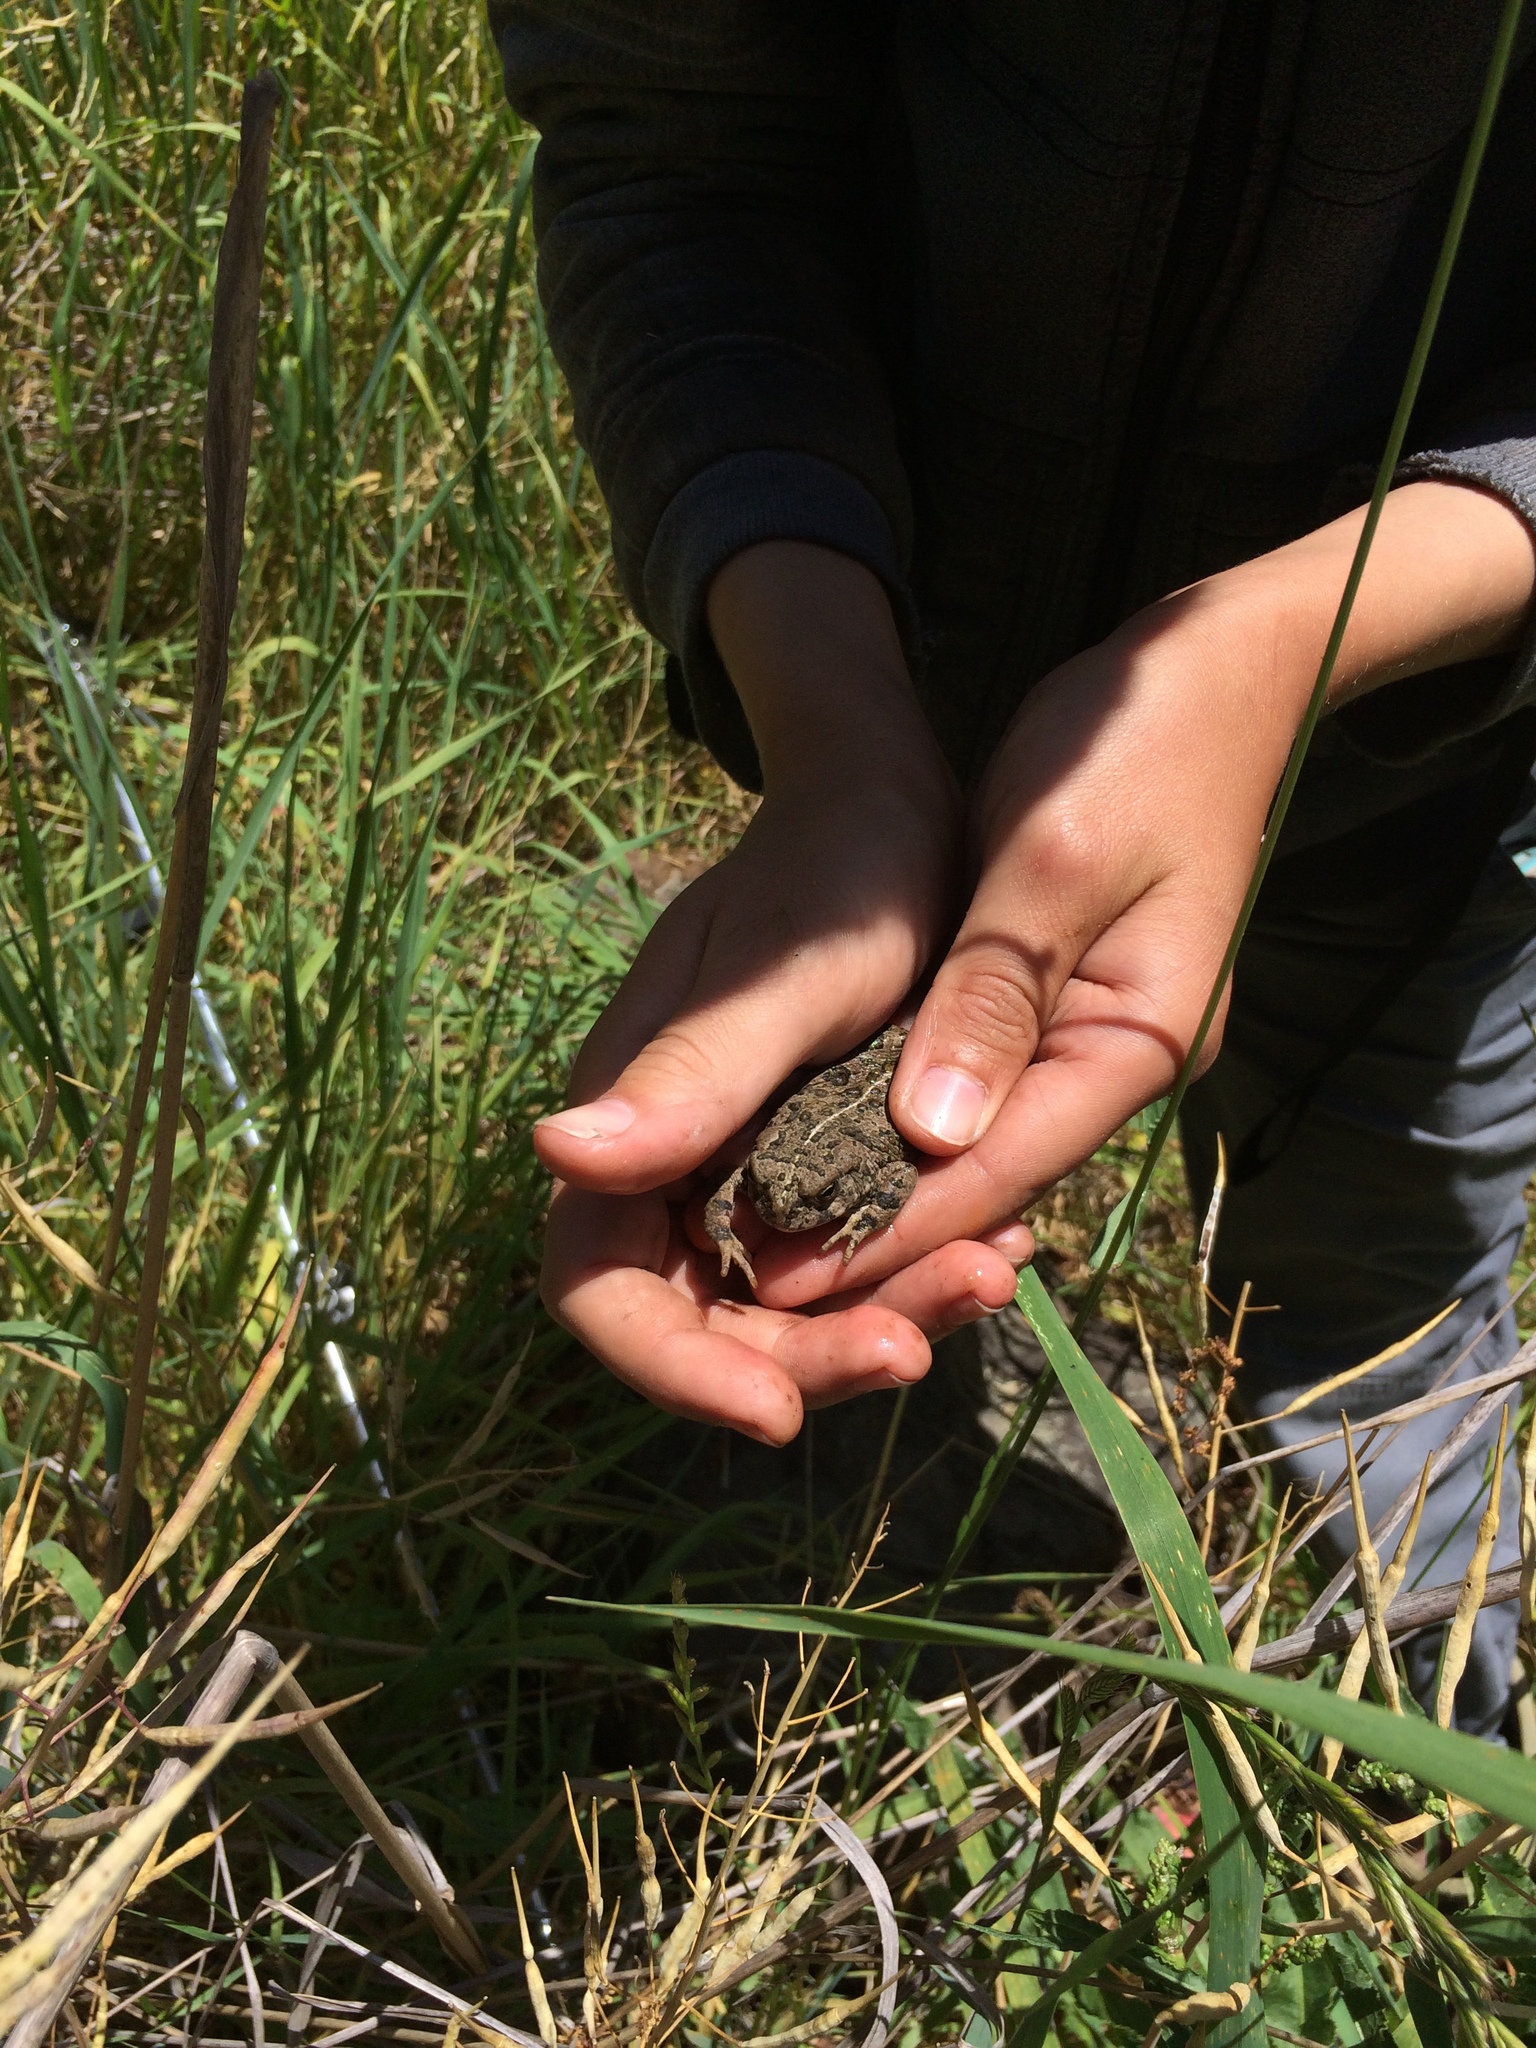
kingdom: Animalia
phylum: Chordata
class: Amphibia
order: Anura
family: Bufonidae
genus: Anaxyrus
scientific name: Anaxyrus boreas
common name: Western toad
